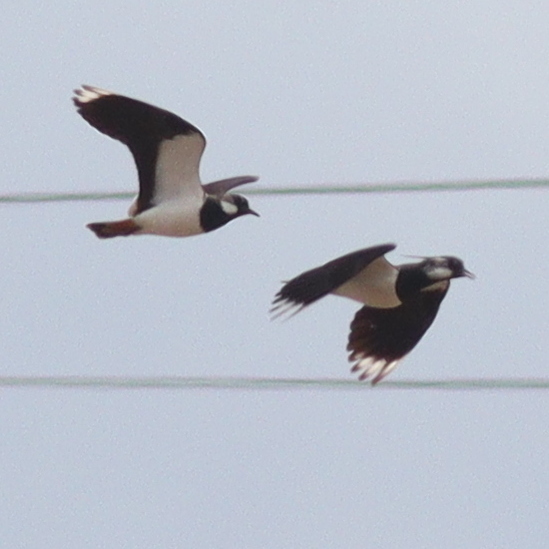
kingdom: Animalia
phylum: Chordata
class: Aves
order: Charadriiformes
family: Charadriidae
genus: Vanellus
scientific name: Vanellus vanellus
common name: Northern lapwing
